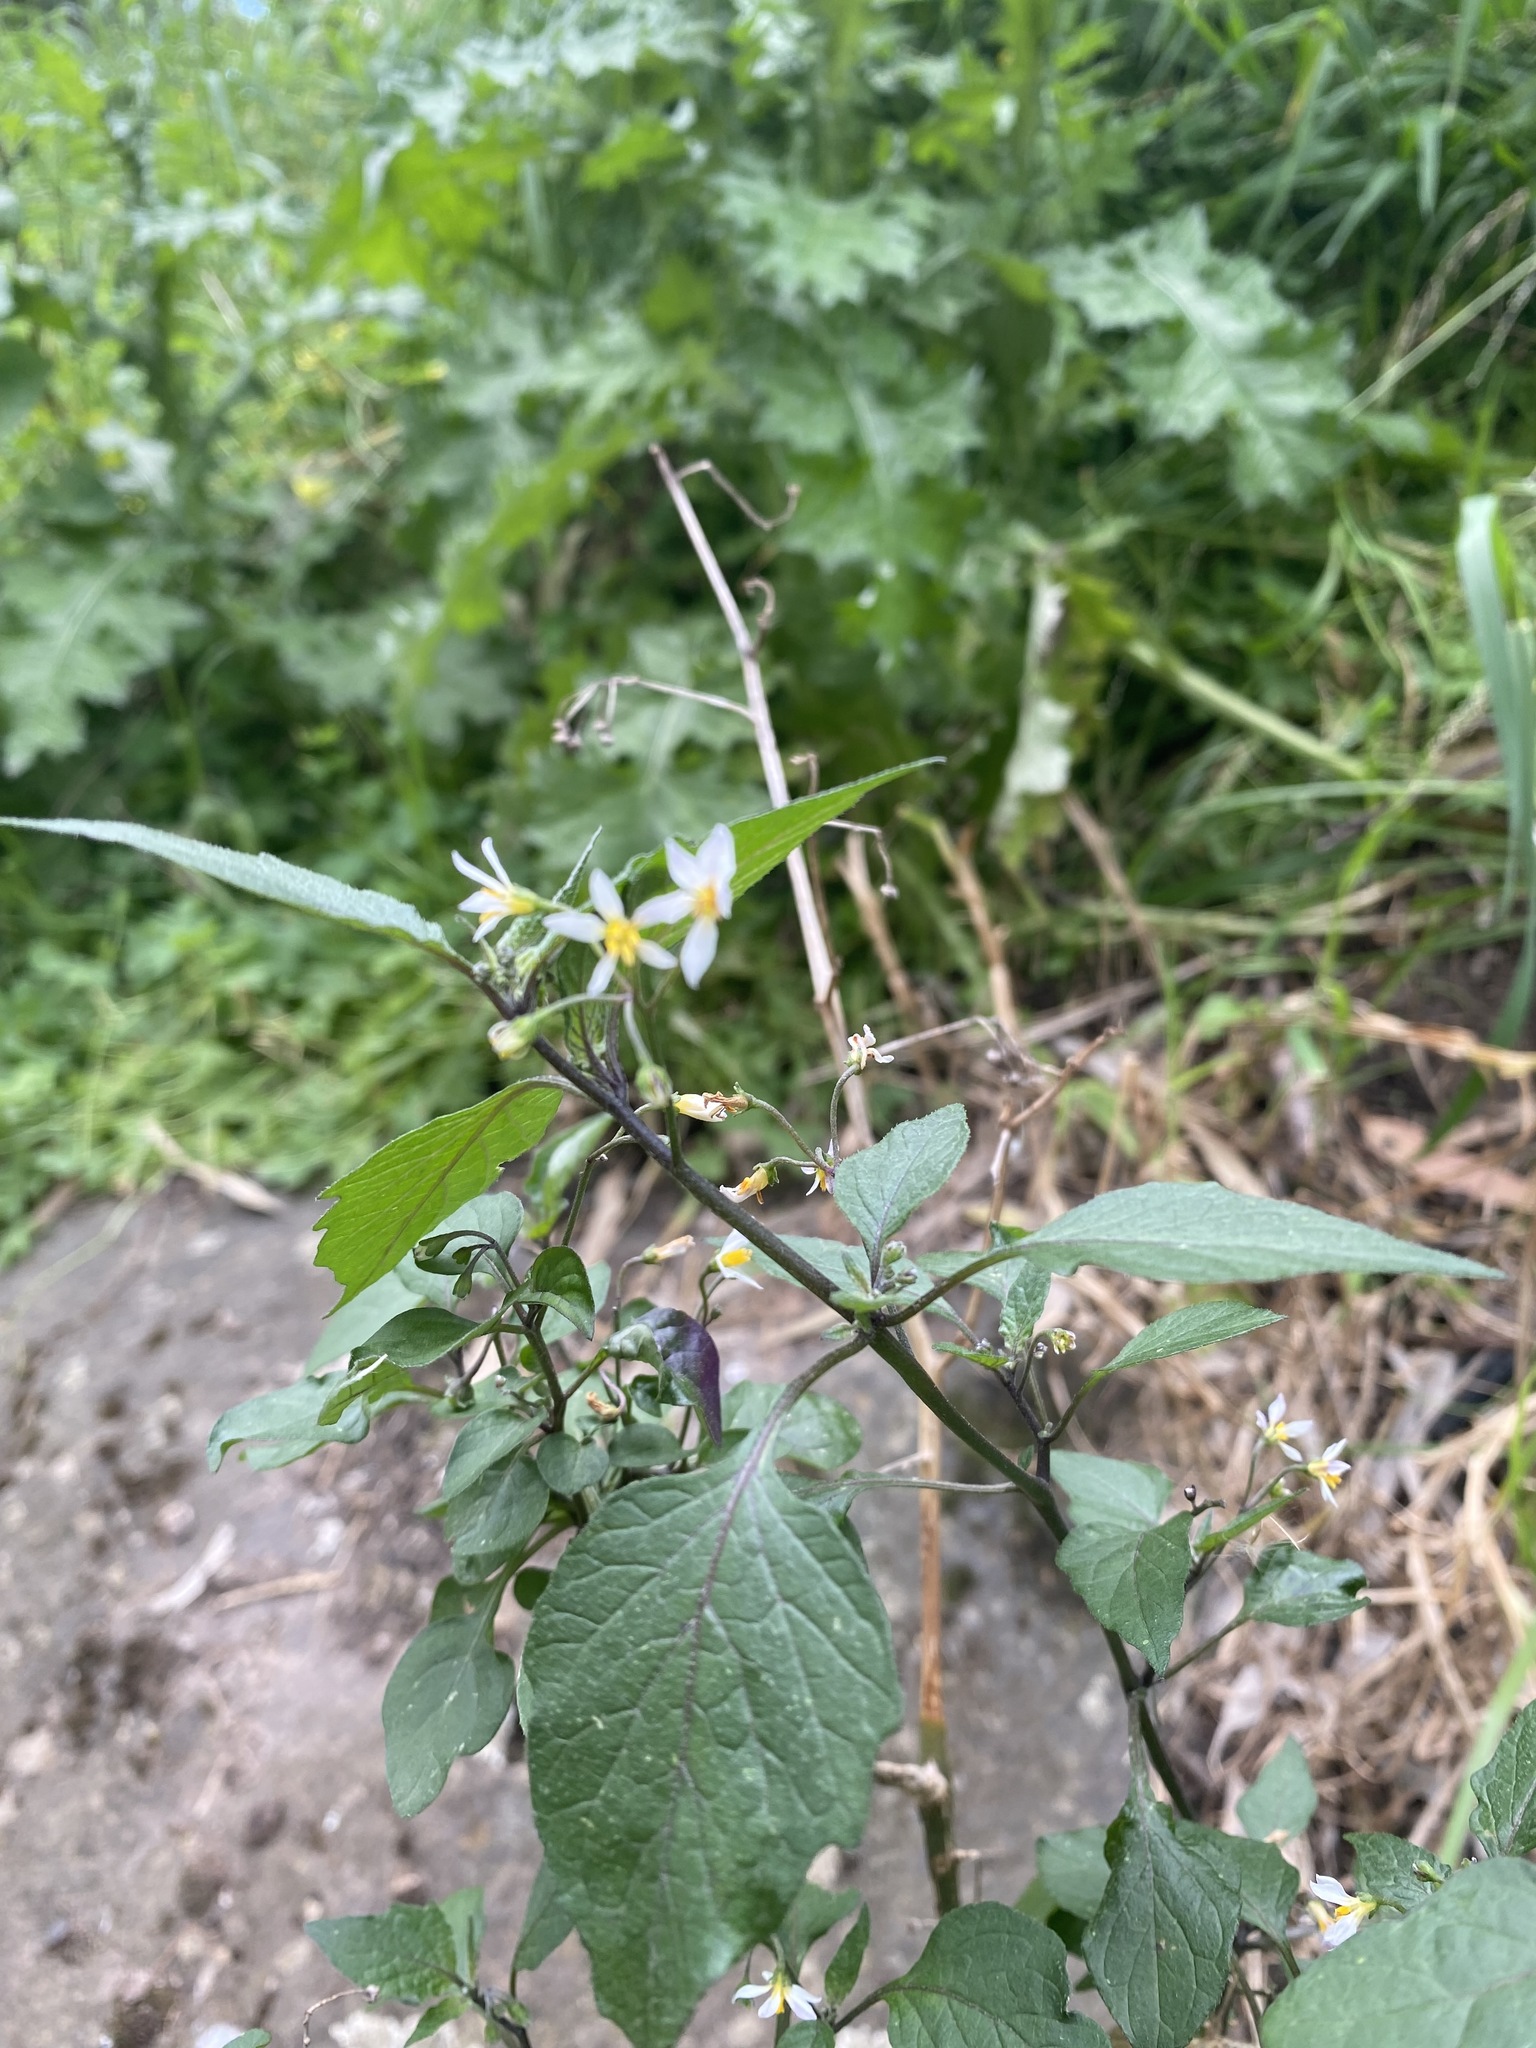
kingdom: Plantae
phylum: Tracheophyta
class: Magnoliopsida
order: Solanales
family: Solanaceae
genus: Solanum
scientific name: Solanum nigrum
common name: Black nightshade
